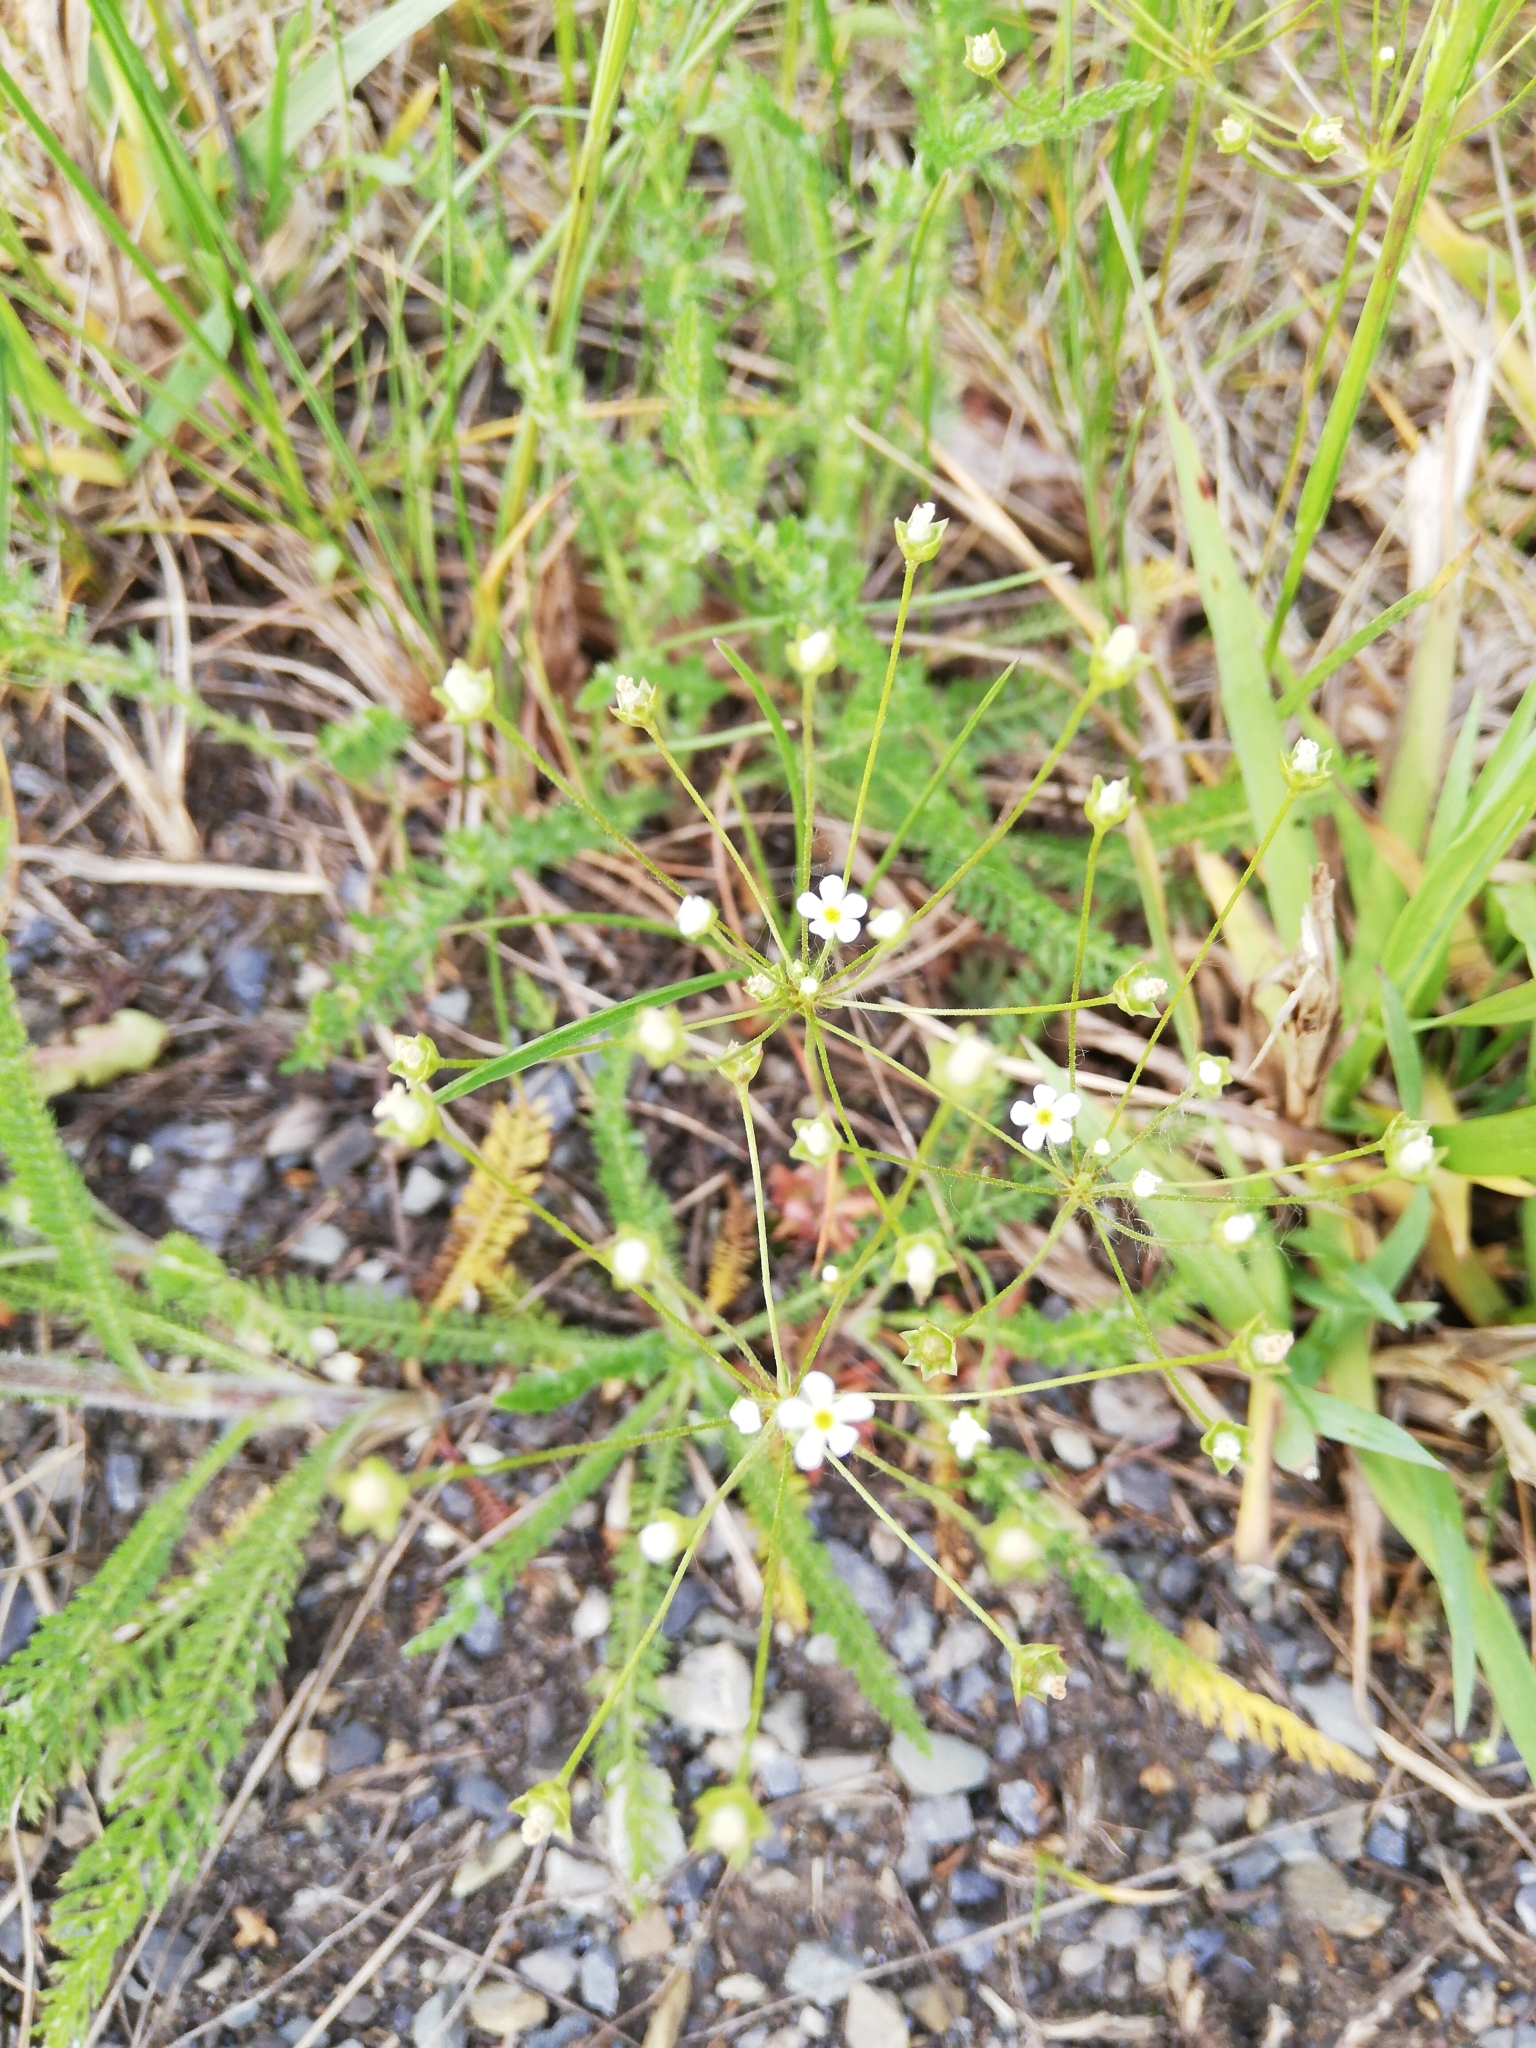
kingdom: Plantae
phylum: Tracheophyta
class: Magnoliopsida
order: Ericales
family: Primulaceae
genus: Androsace
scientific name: Androsace septentrionalis
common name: Hairy northern fairy-candelabra
